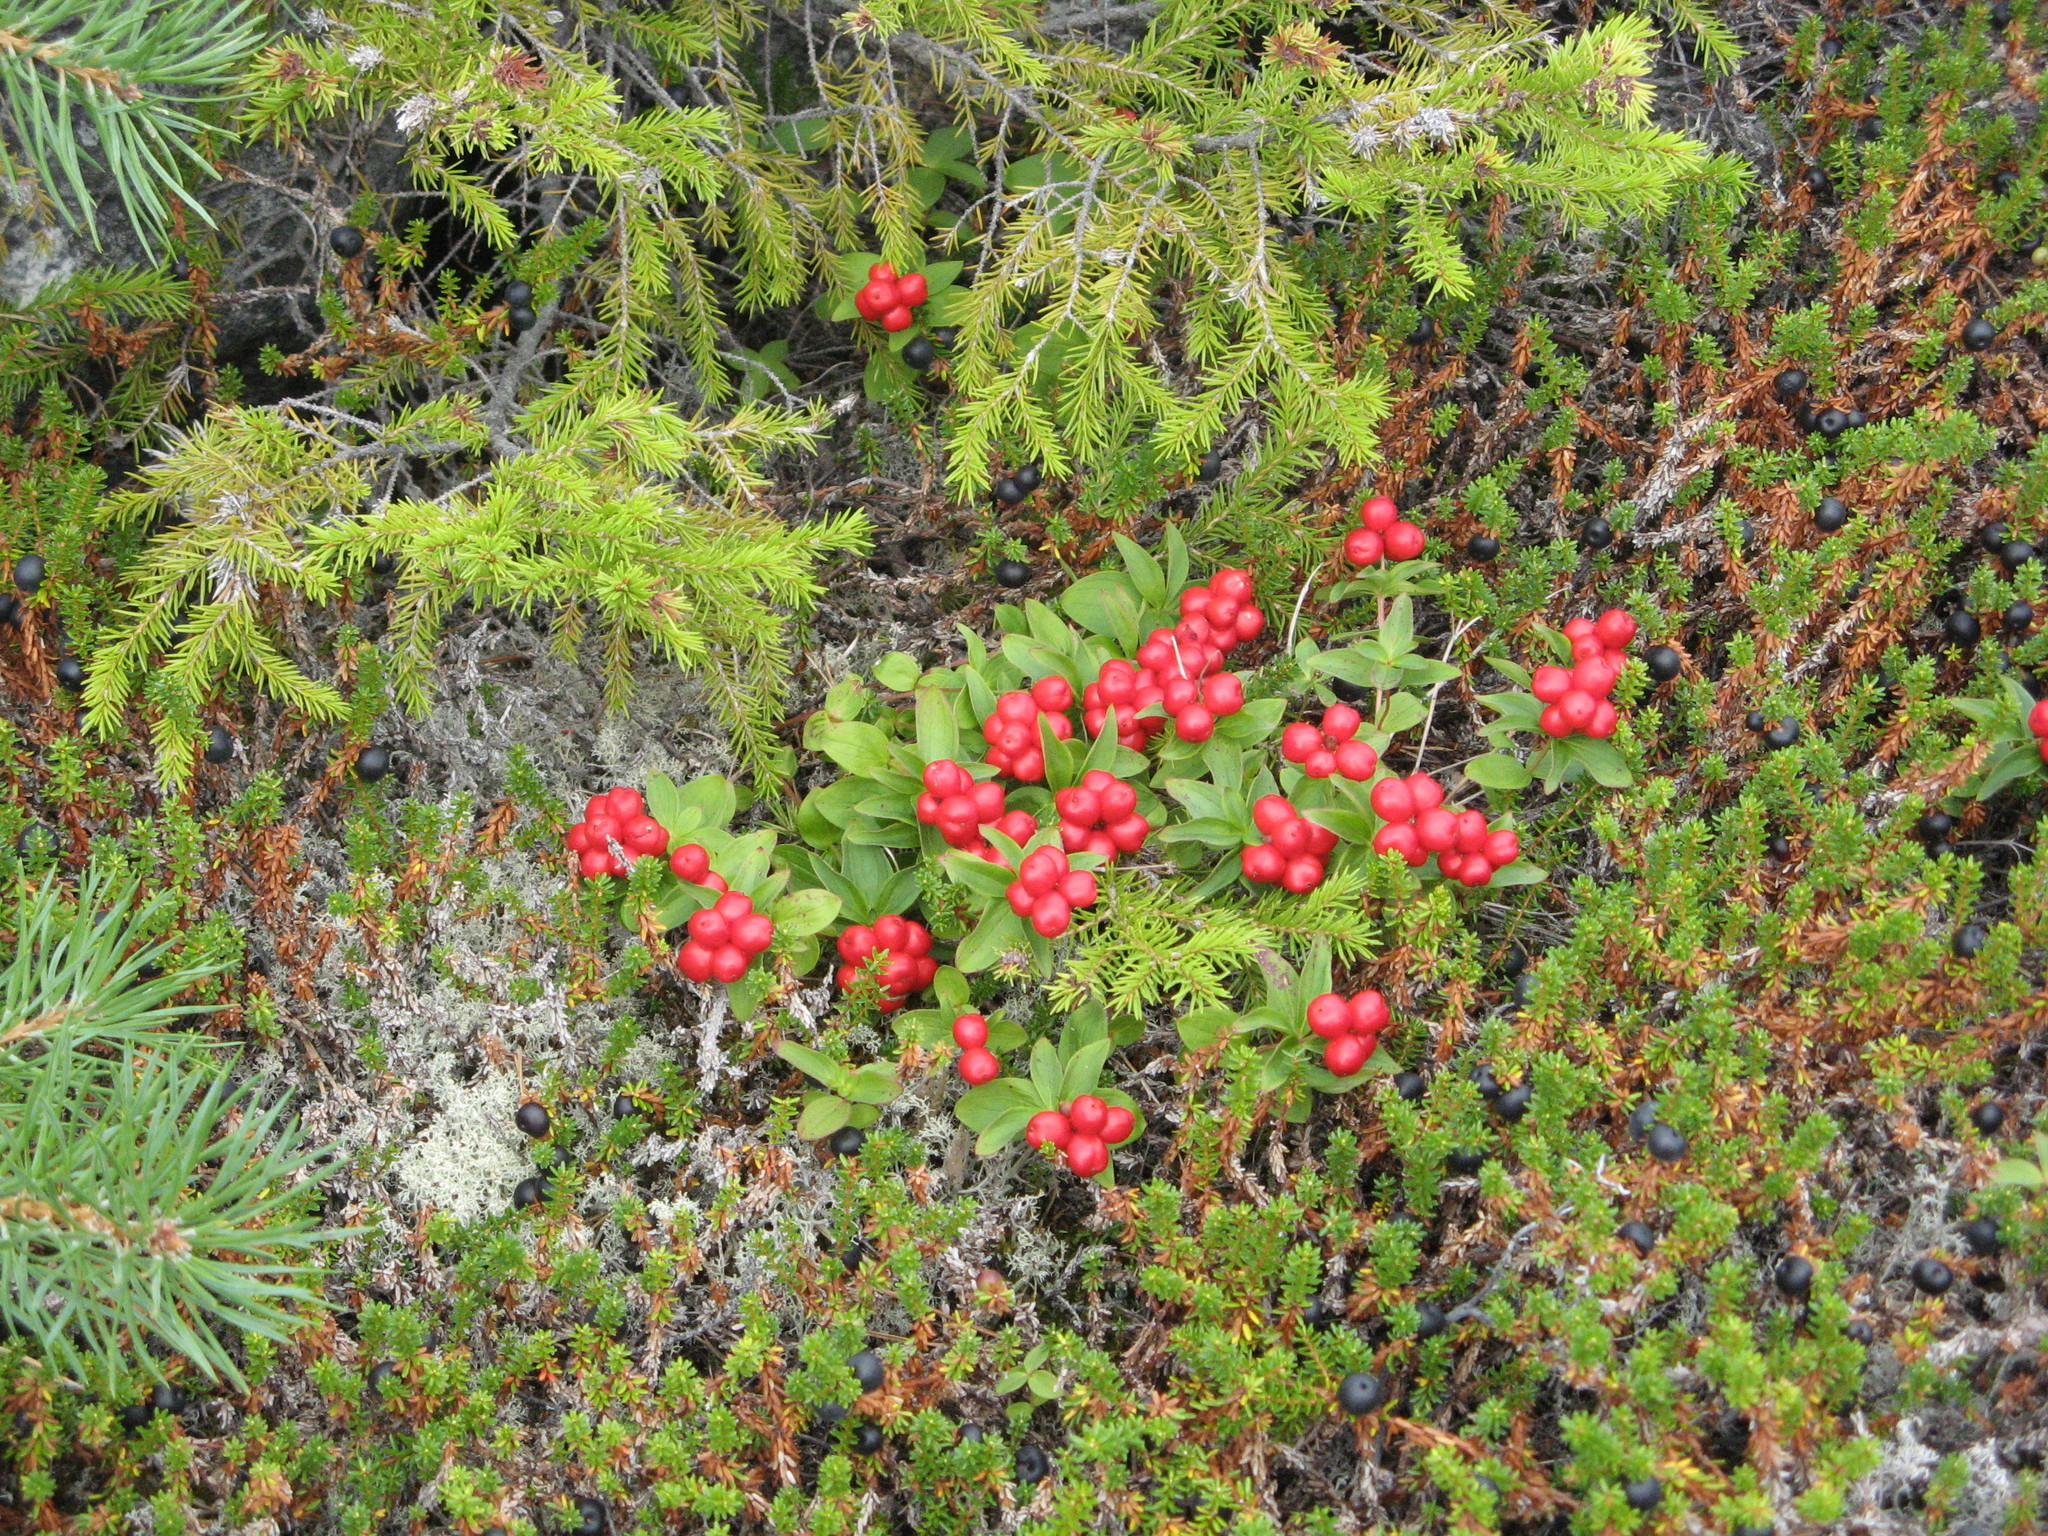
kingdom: Plantae
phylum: Tracheophyta
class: Magnoliopsida
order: Cornales
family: Cornaceae
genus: Cornus
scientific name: Cornus suecica
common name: Dwarf cornel
